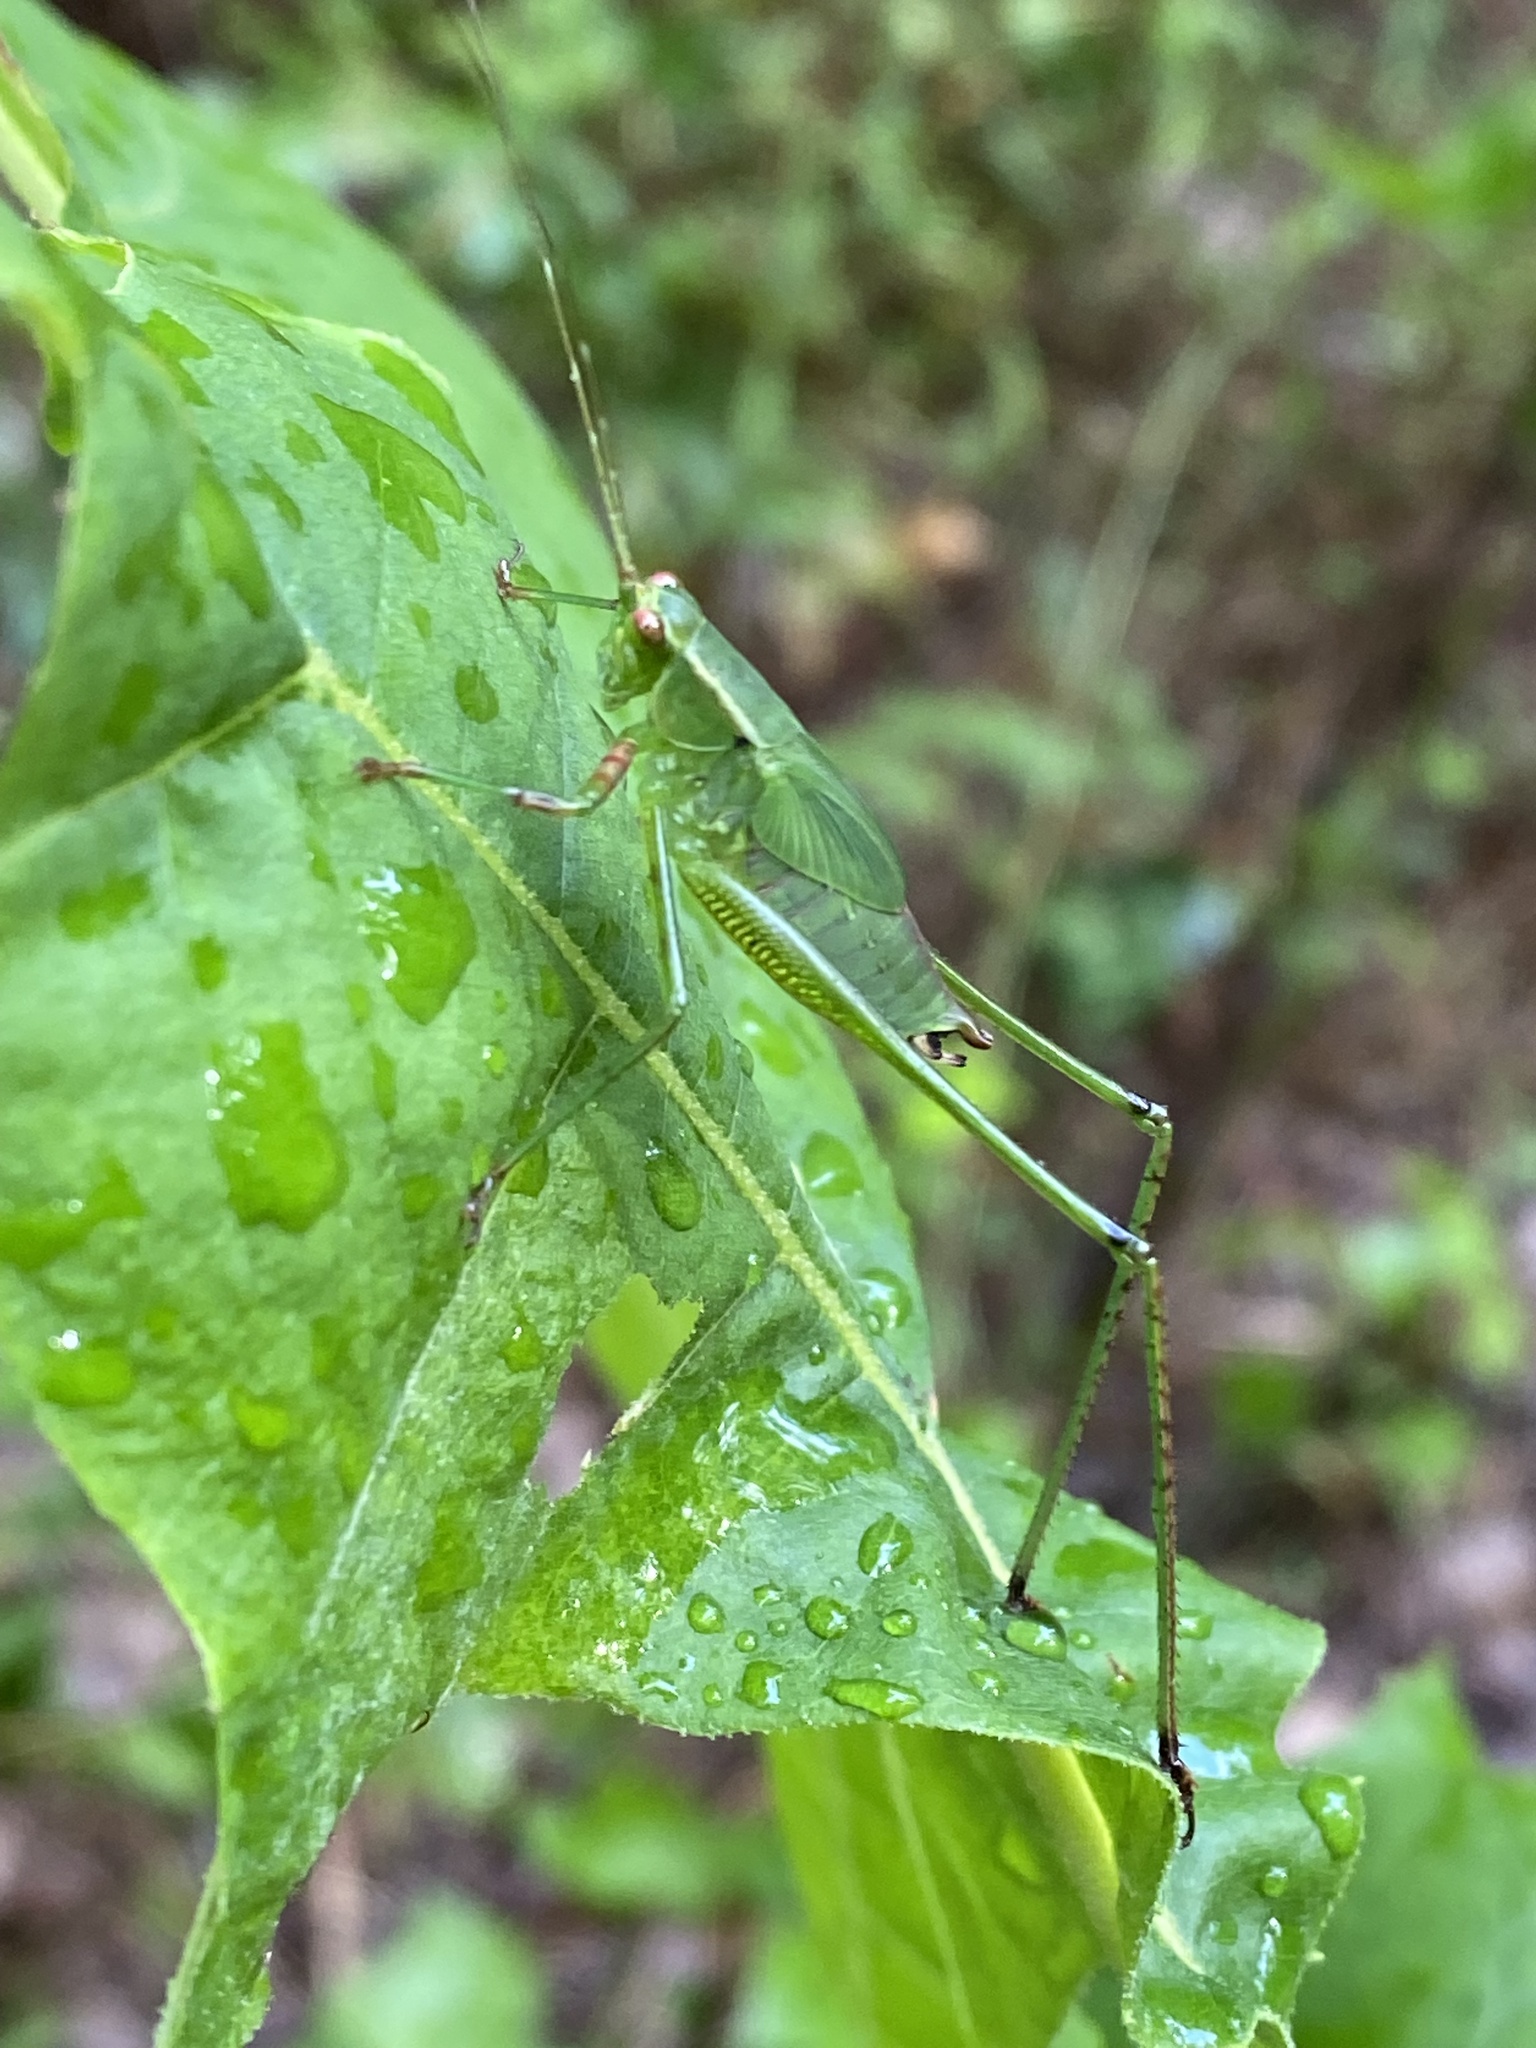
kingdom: Animalia
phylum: Arthropoda
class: Insecta
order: Orthoptera
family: Tettigoniidae
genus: Scudderia
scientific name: Scudderia furcata
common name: Fork-tailed bush katydid
